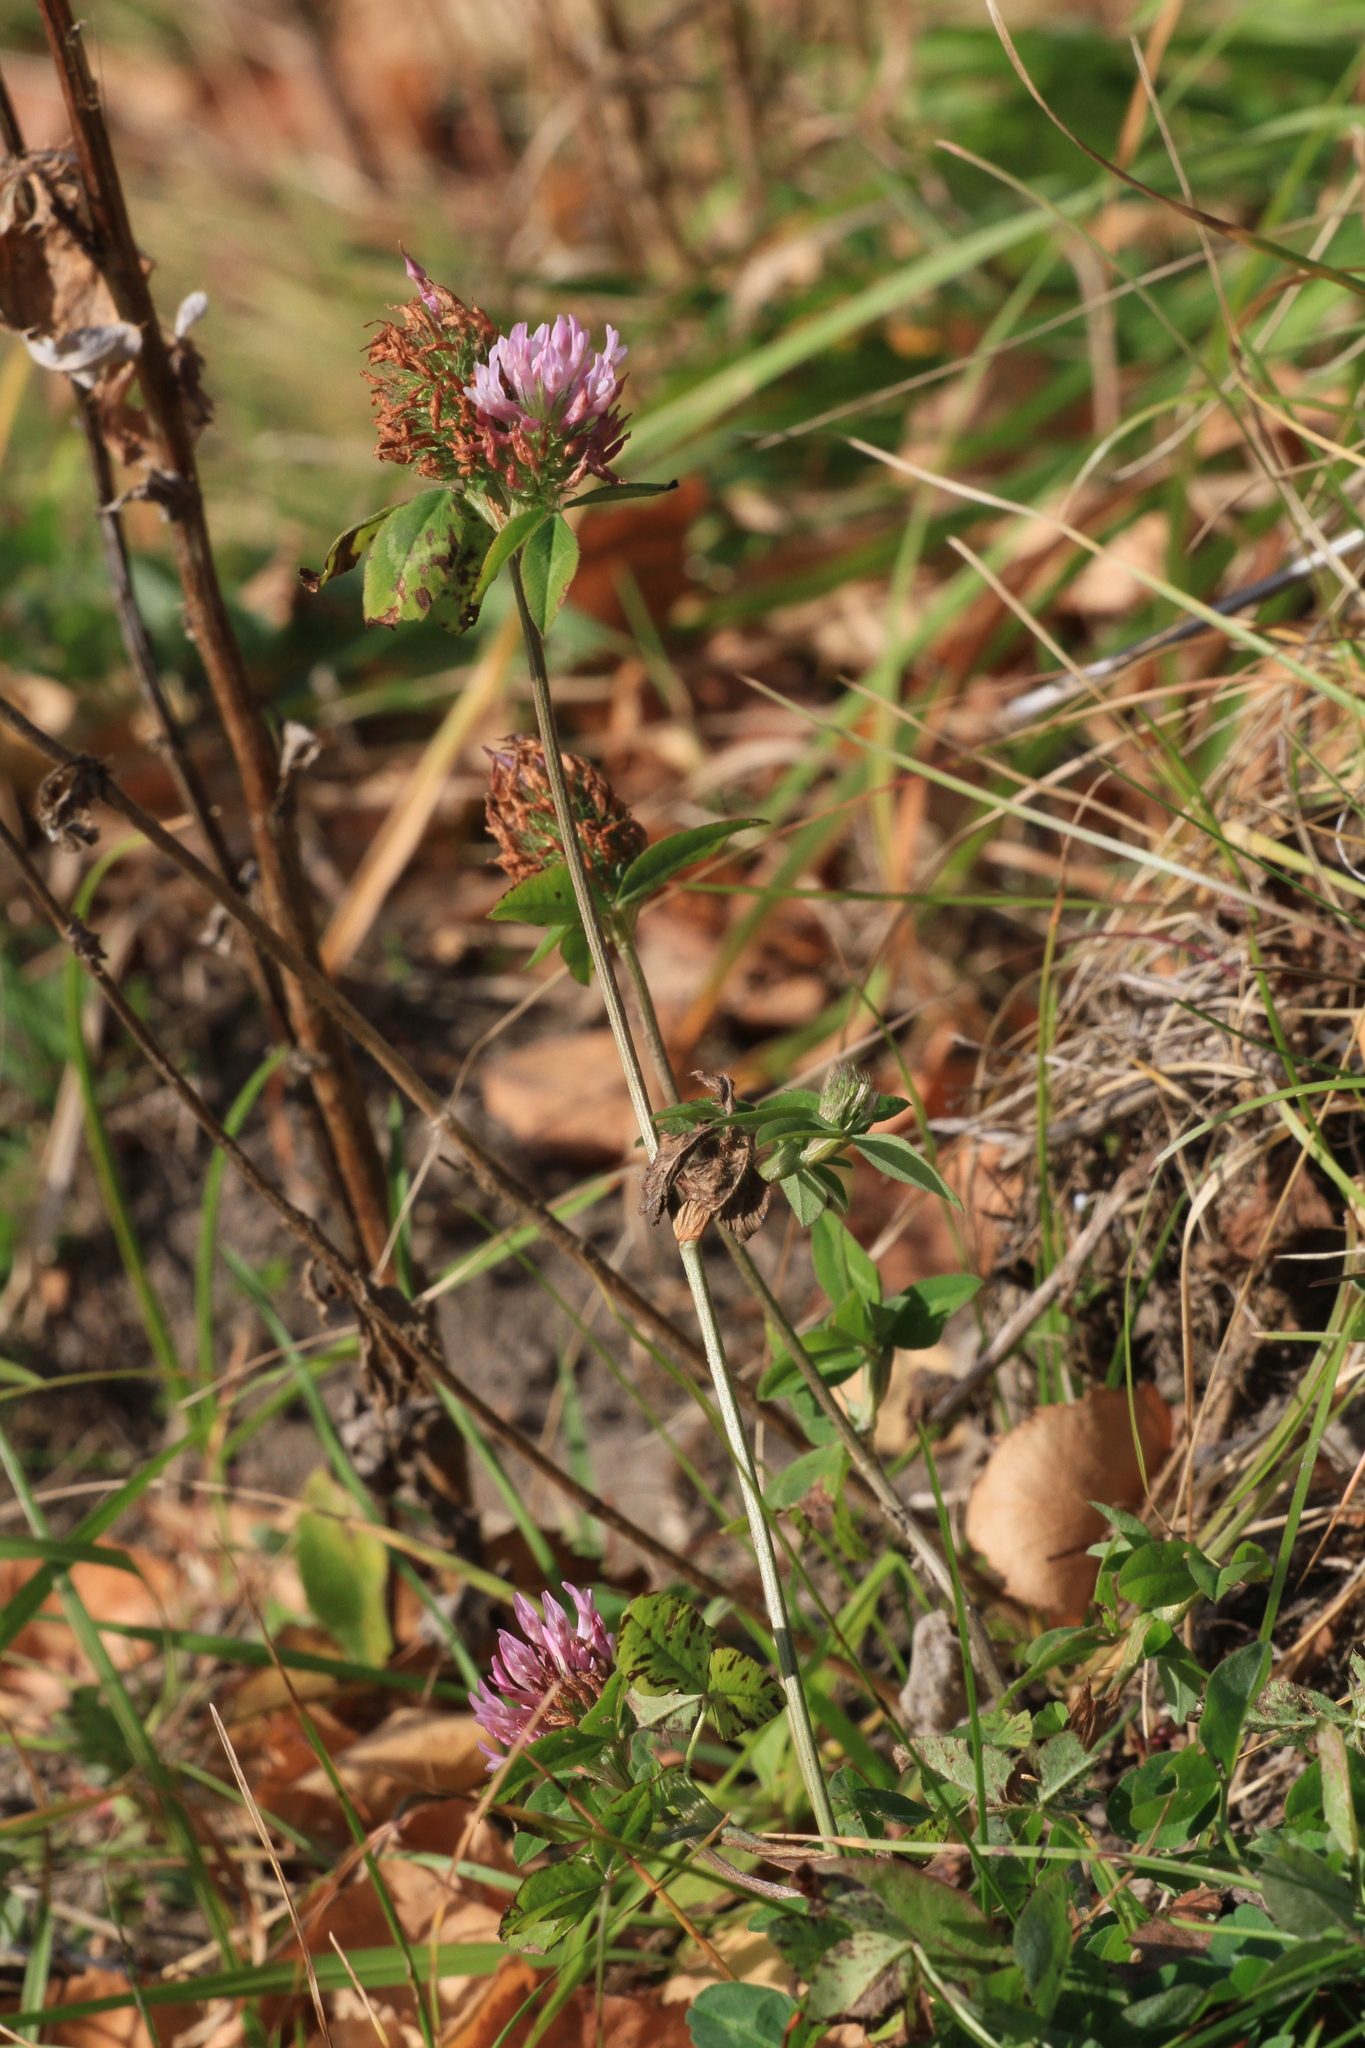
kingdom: Plantae
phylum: Tracheophyta
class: Magnoliopsida
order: Fabales
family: Fabaceae
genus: Trifolium
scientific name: Trifolium pratense
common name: Red clover
